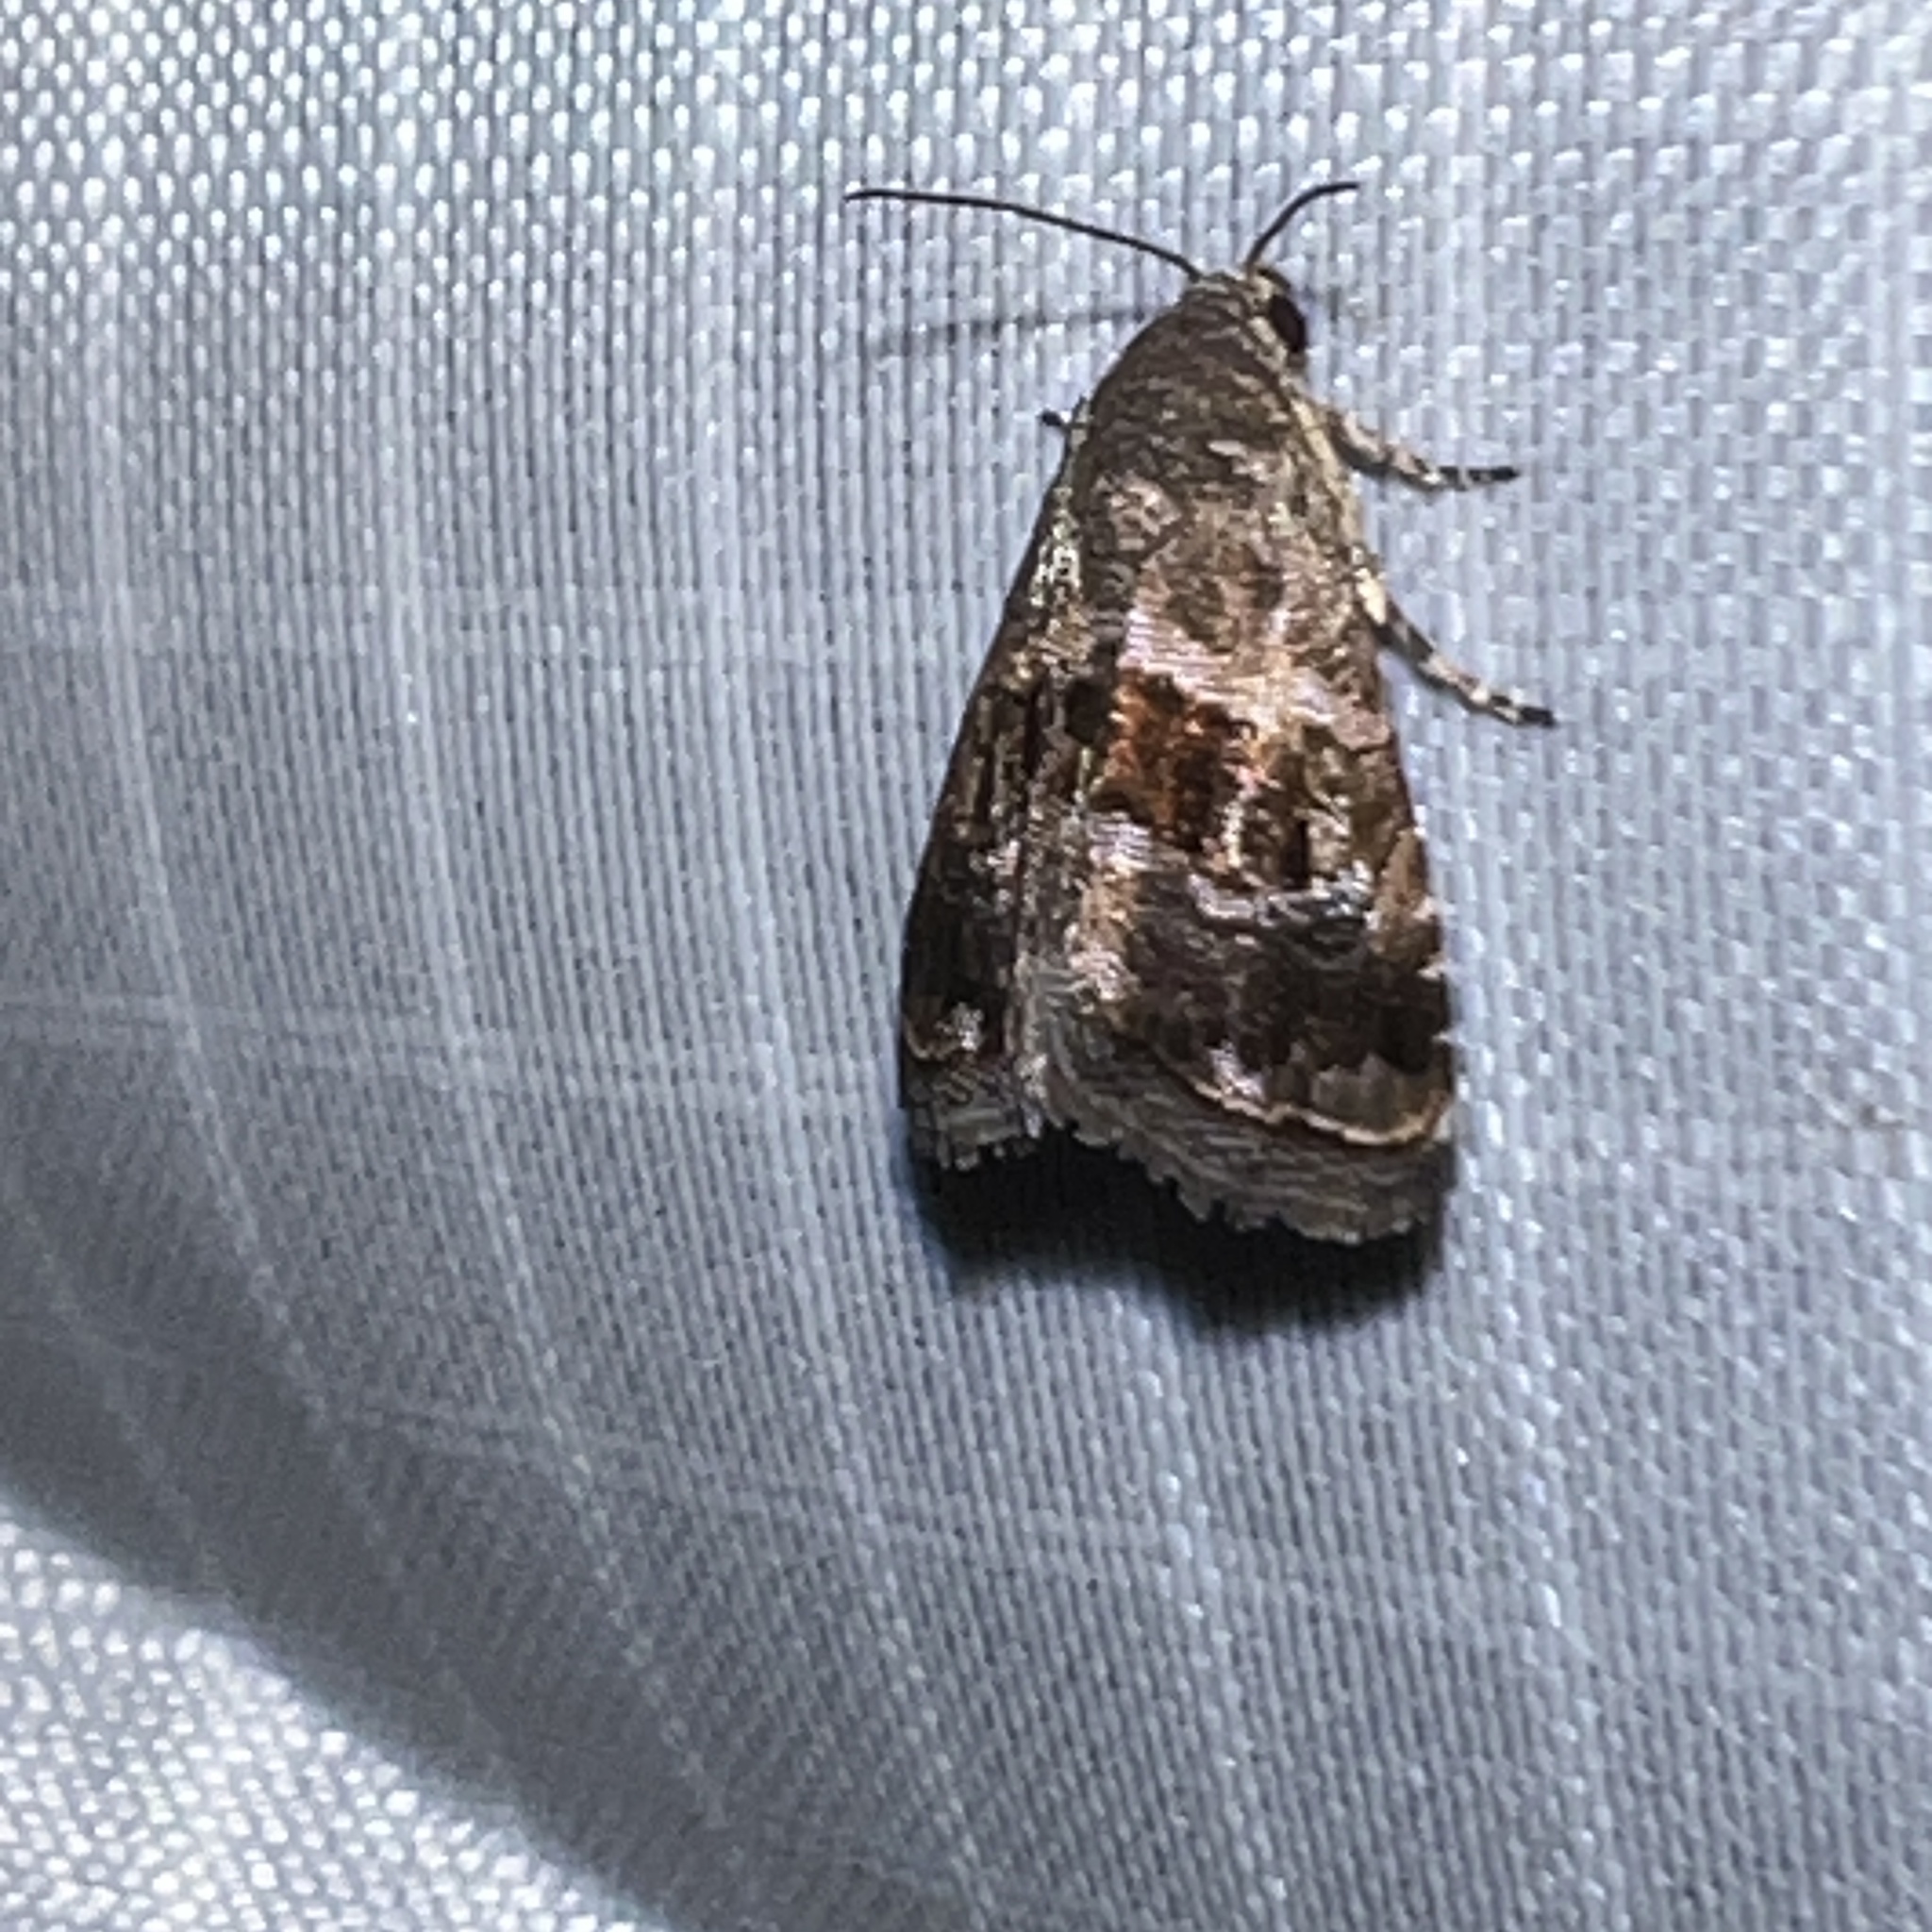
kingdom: Animalia
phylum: Arthropoda
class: Insecta
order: Lepidoptera
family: Noctuidae
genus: Tripudia
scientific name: Tripudia quadrifera
